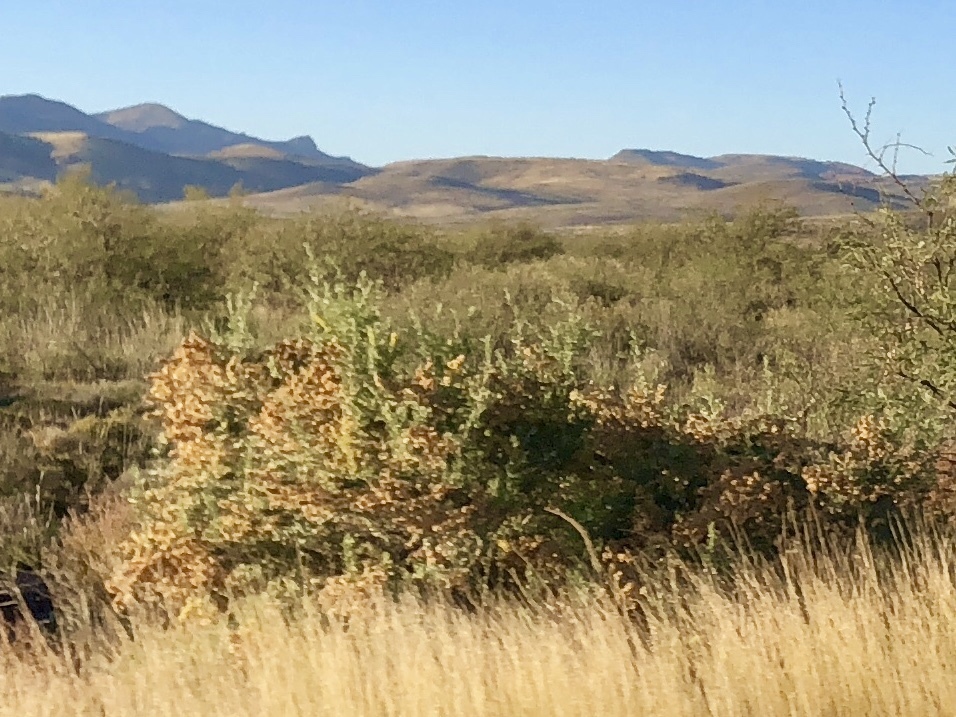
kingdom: Plantae
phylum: Tracheophyta
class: Magnoliopsida
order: Caryophyllales
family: Amaranthaceae
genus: Atriplex
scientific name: Atriplex canescens
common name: Four-wing saltbush
